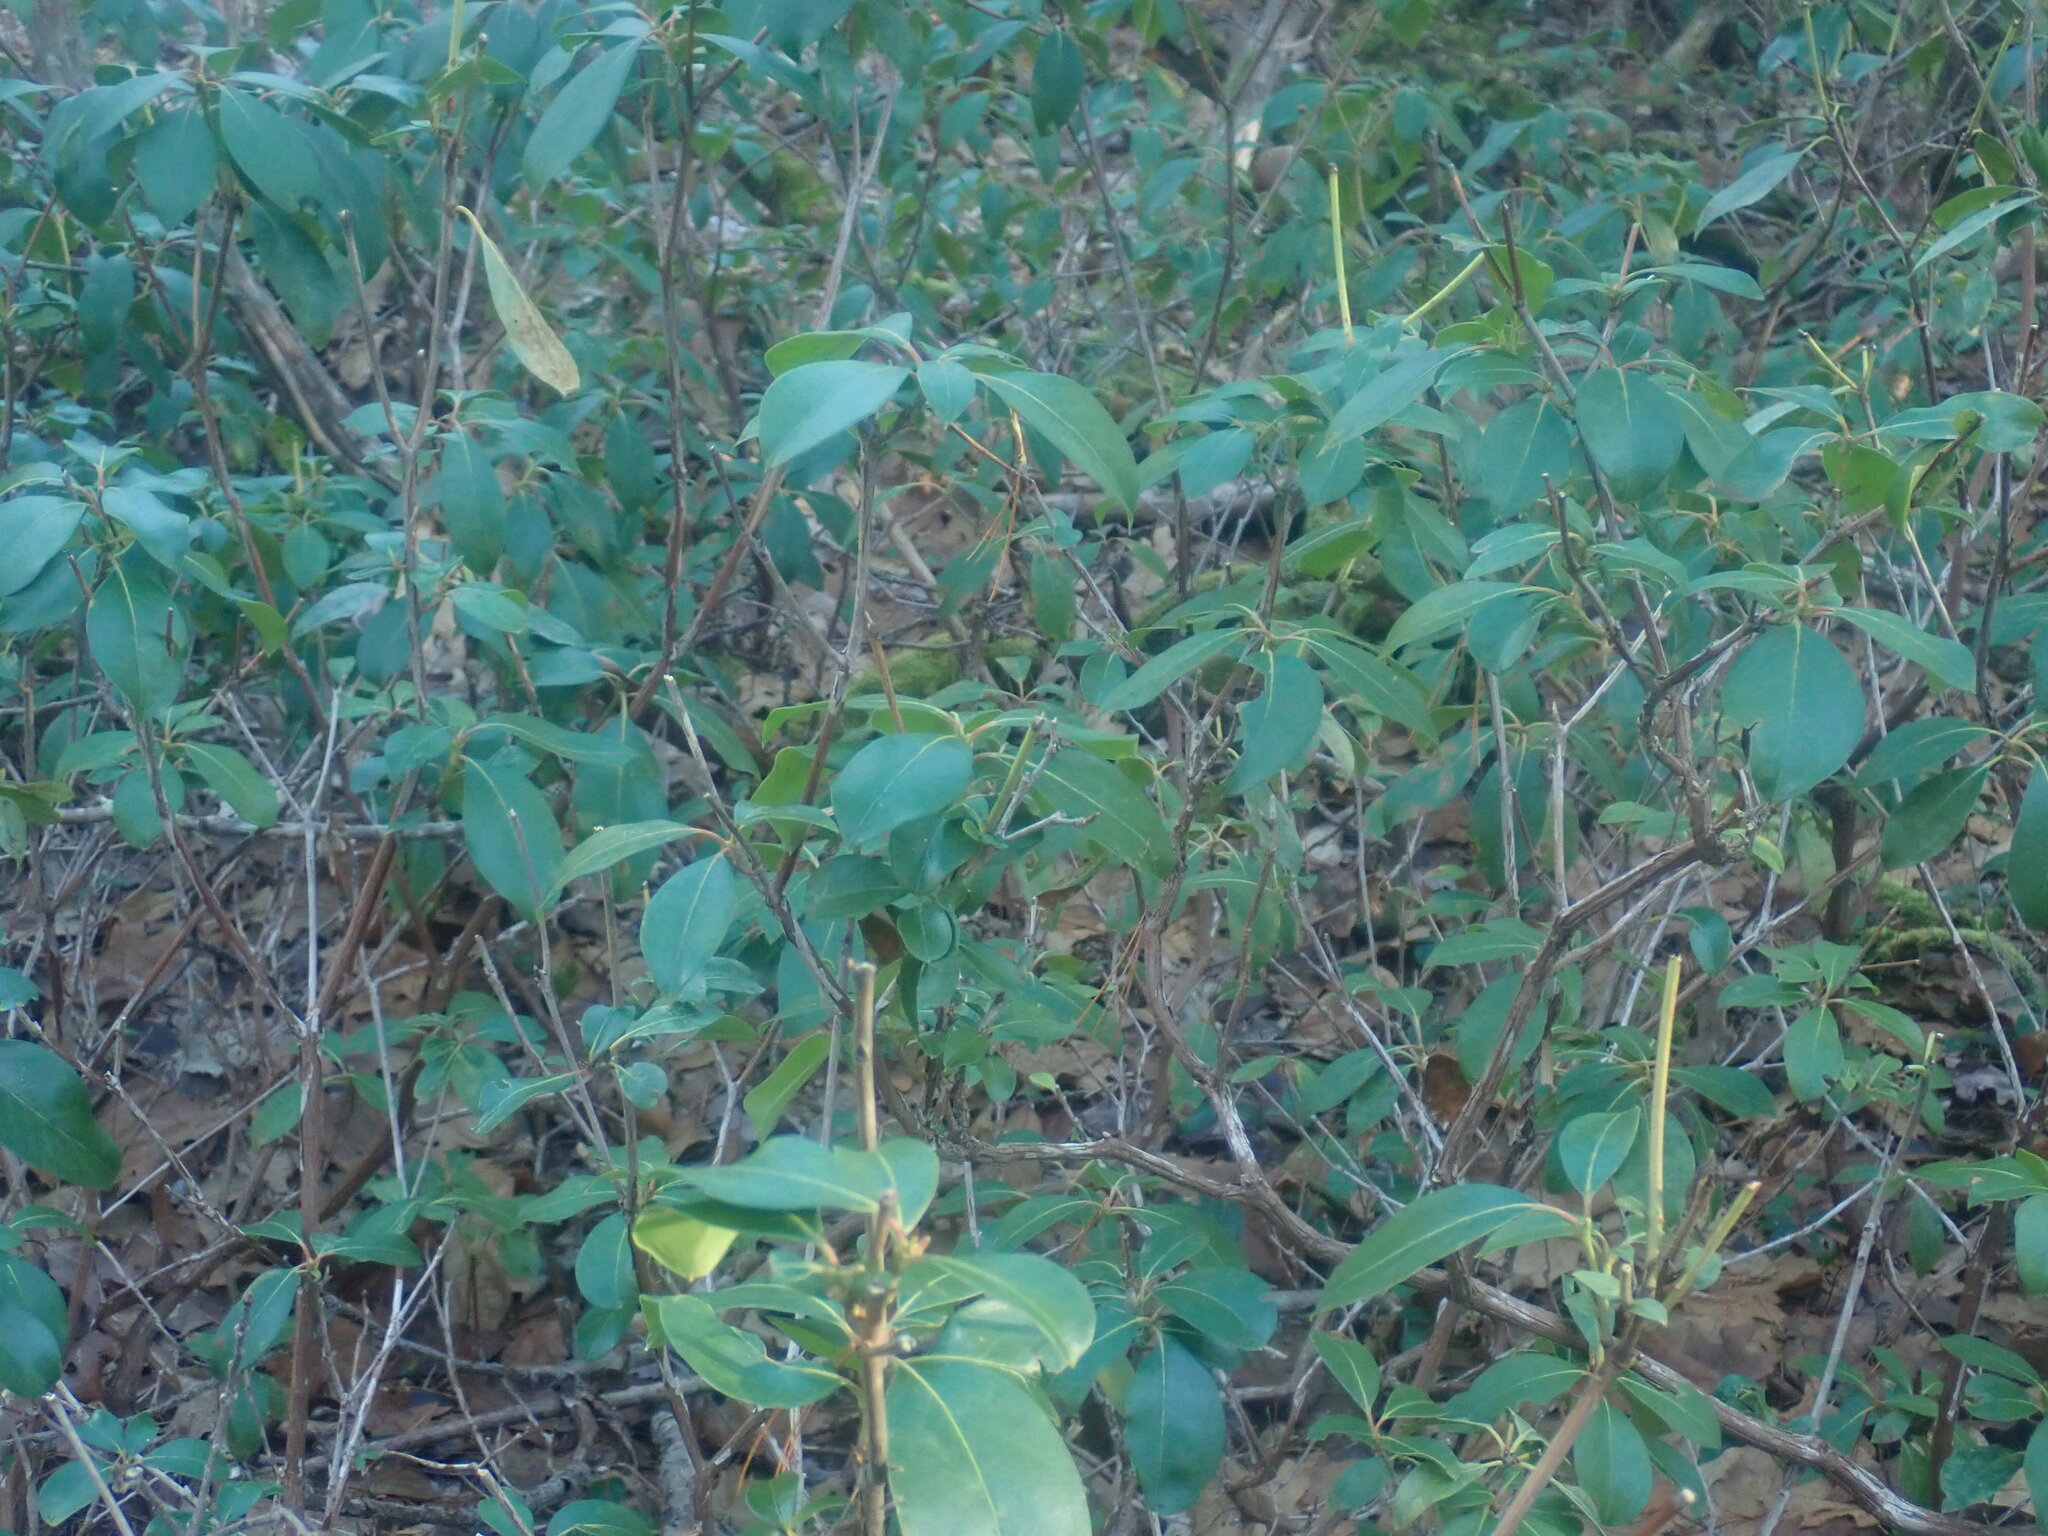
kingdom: Plantae
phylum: Tracheophyta
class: Magnoliopsida
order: Ericales
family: Ericaceae
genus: Kalmia
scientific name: Kalmia latifolia
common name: Mountain-laurel
